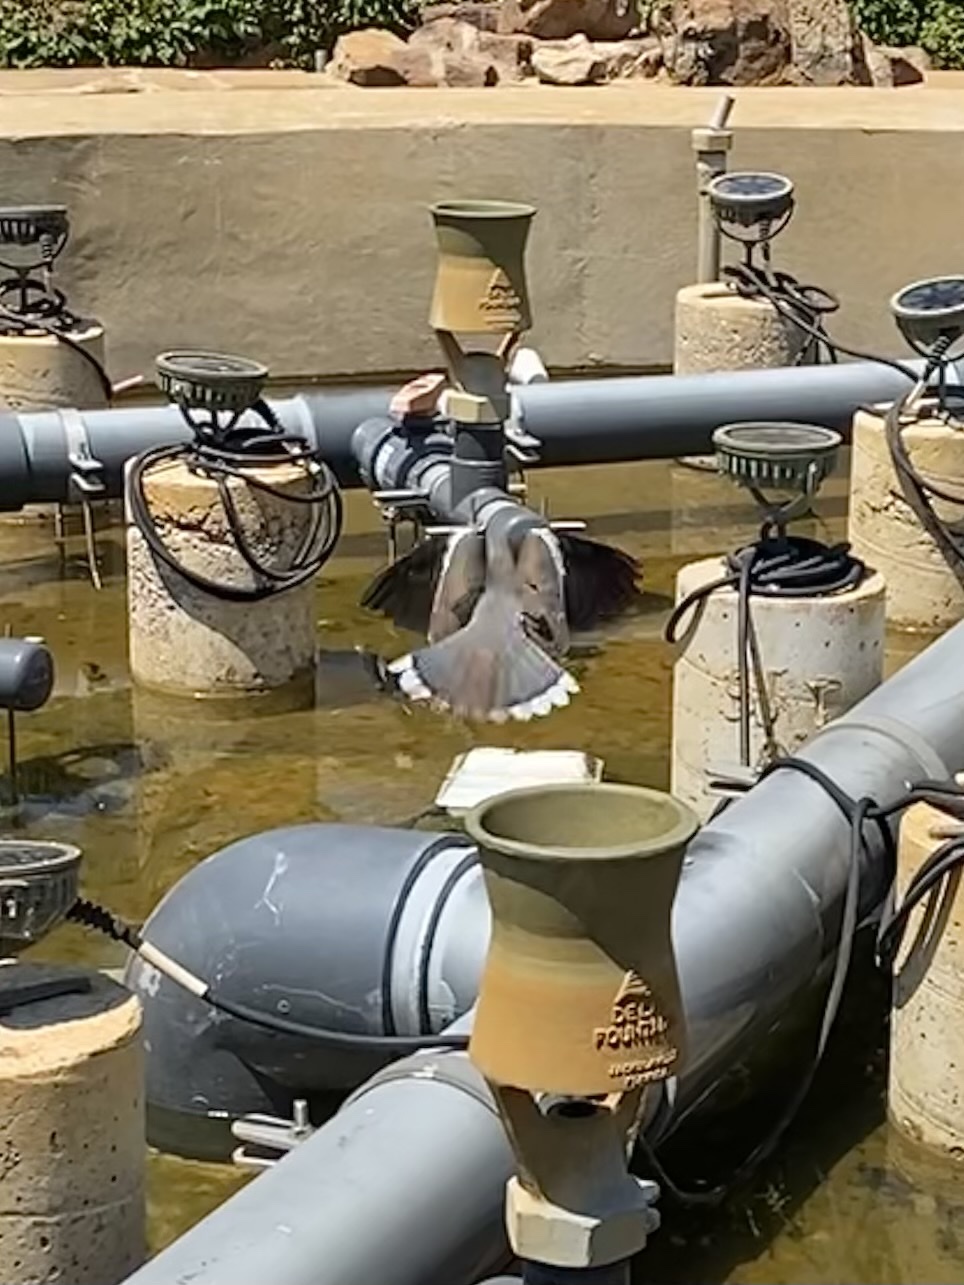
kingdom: Animalia
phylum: Chordata
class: Aves
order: Columbiformes
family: Columbidae
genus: Zenaida
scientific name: Zenaida asiatica
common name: White-winged dove
